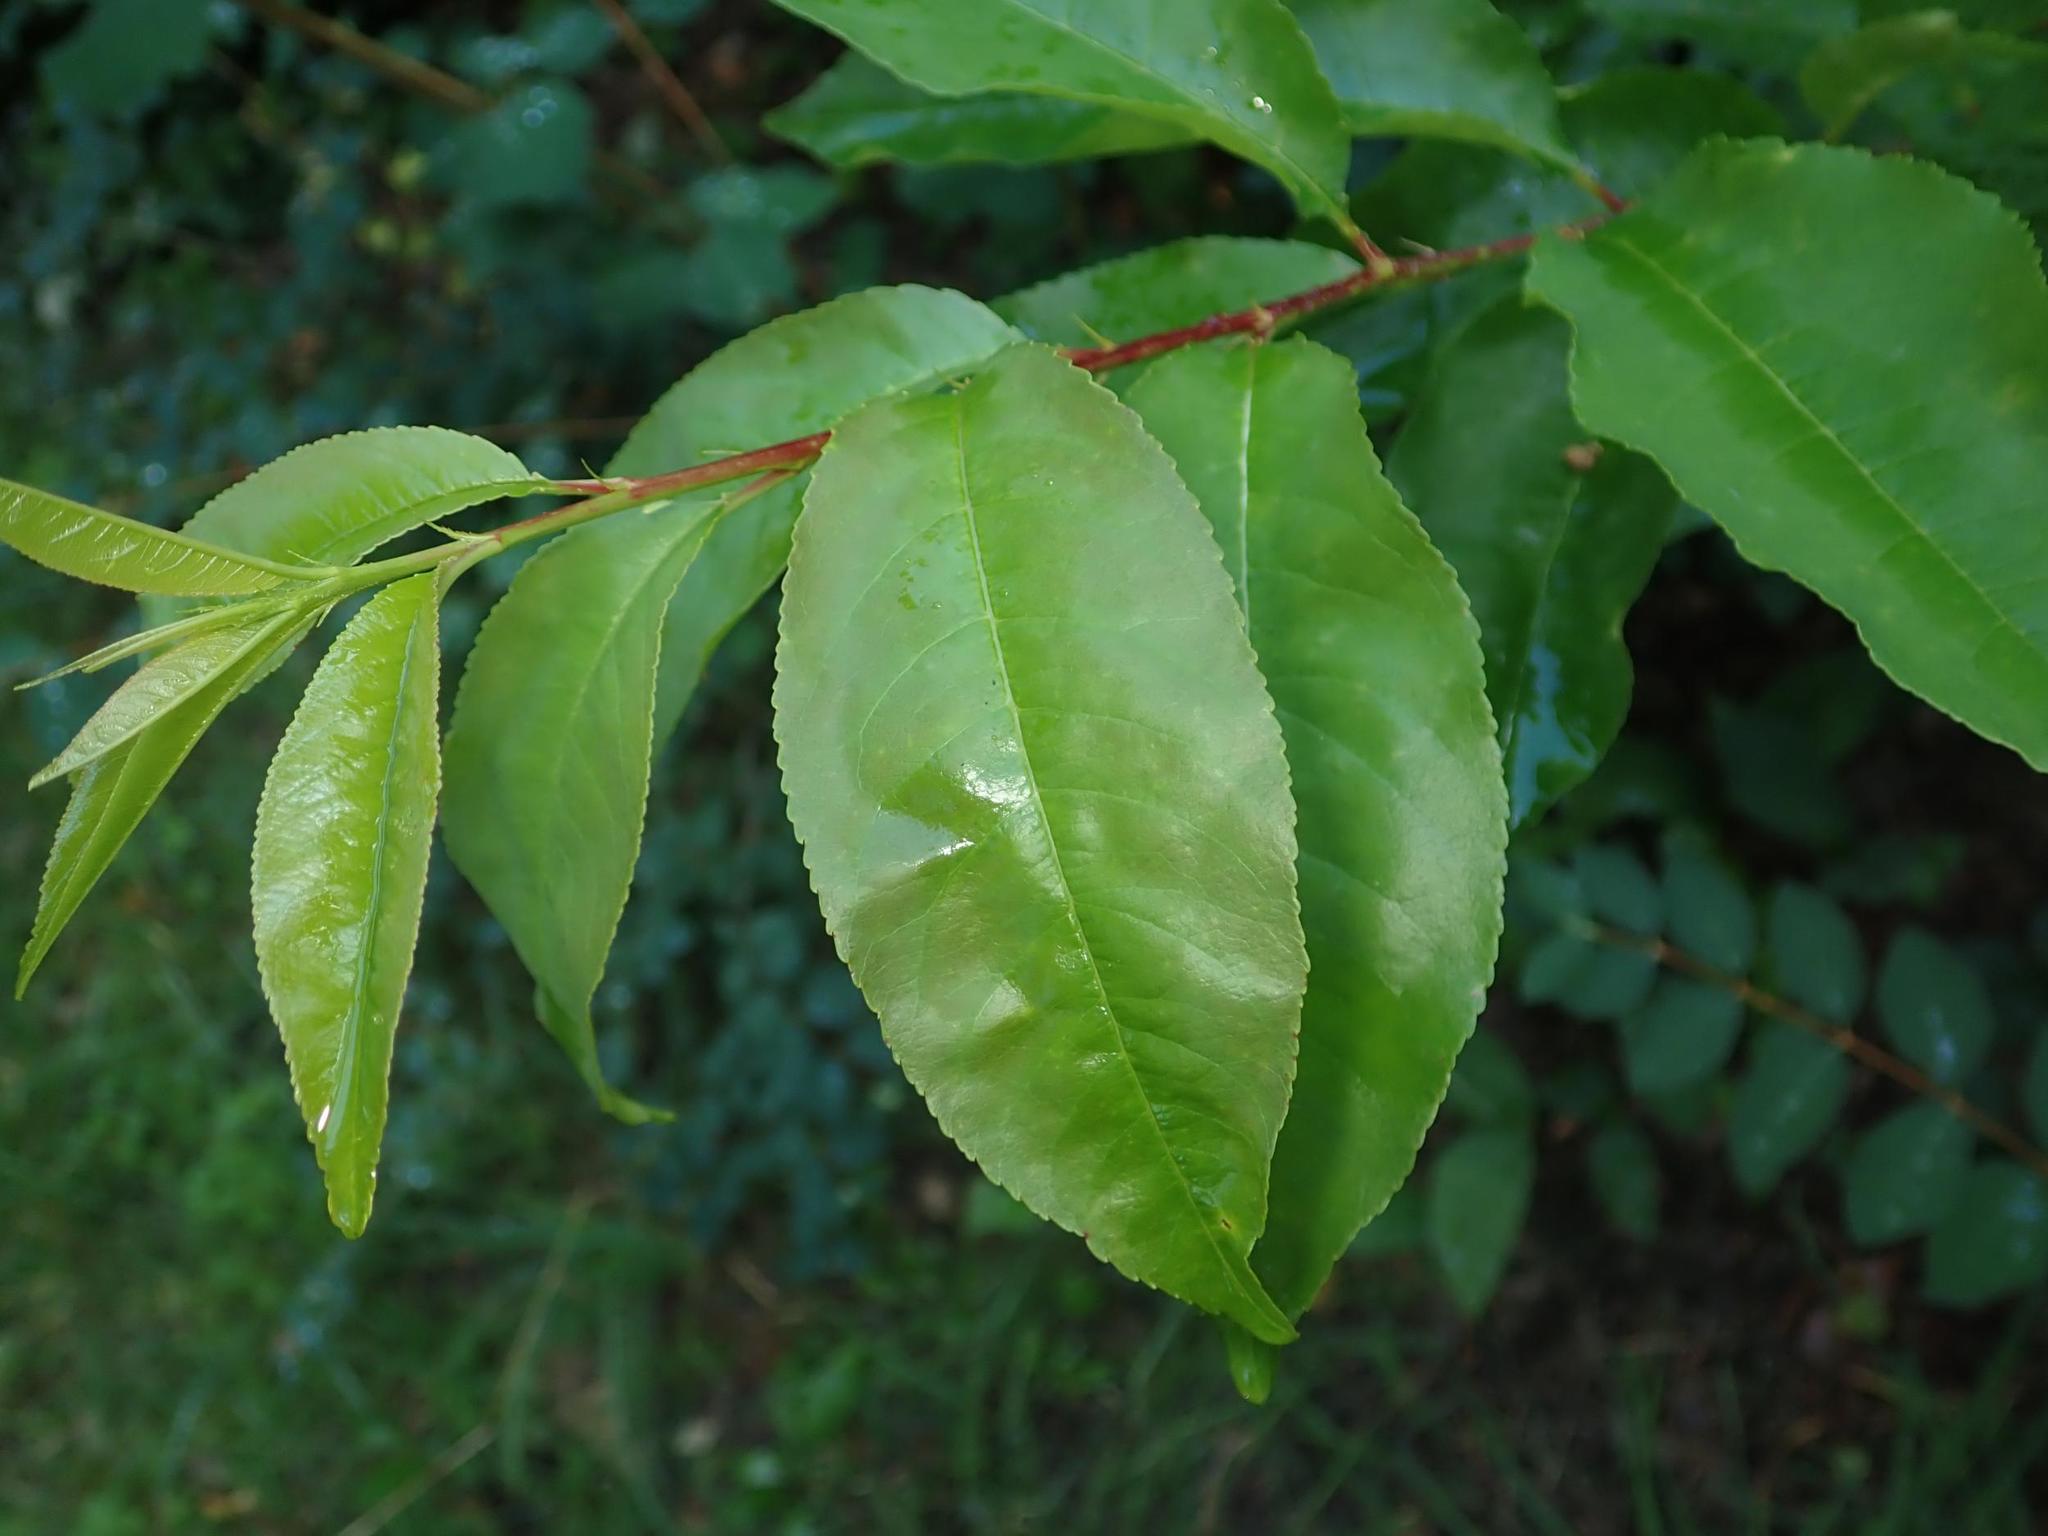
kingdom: Plantae
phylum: Tracheophyta
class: Magnoliopsida
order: Rosales
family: Rosaceae
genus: Prunus
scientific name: Prunus serotina
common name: Black cherry
